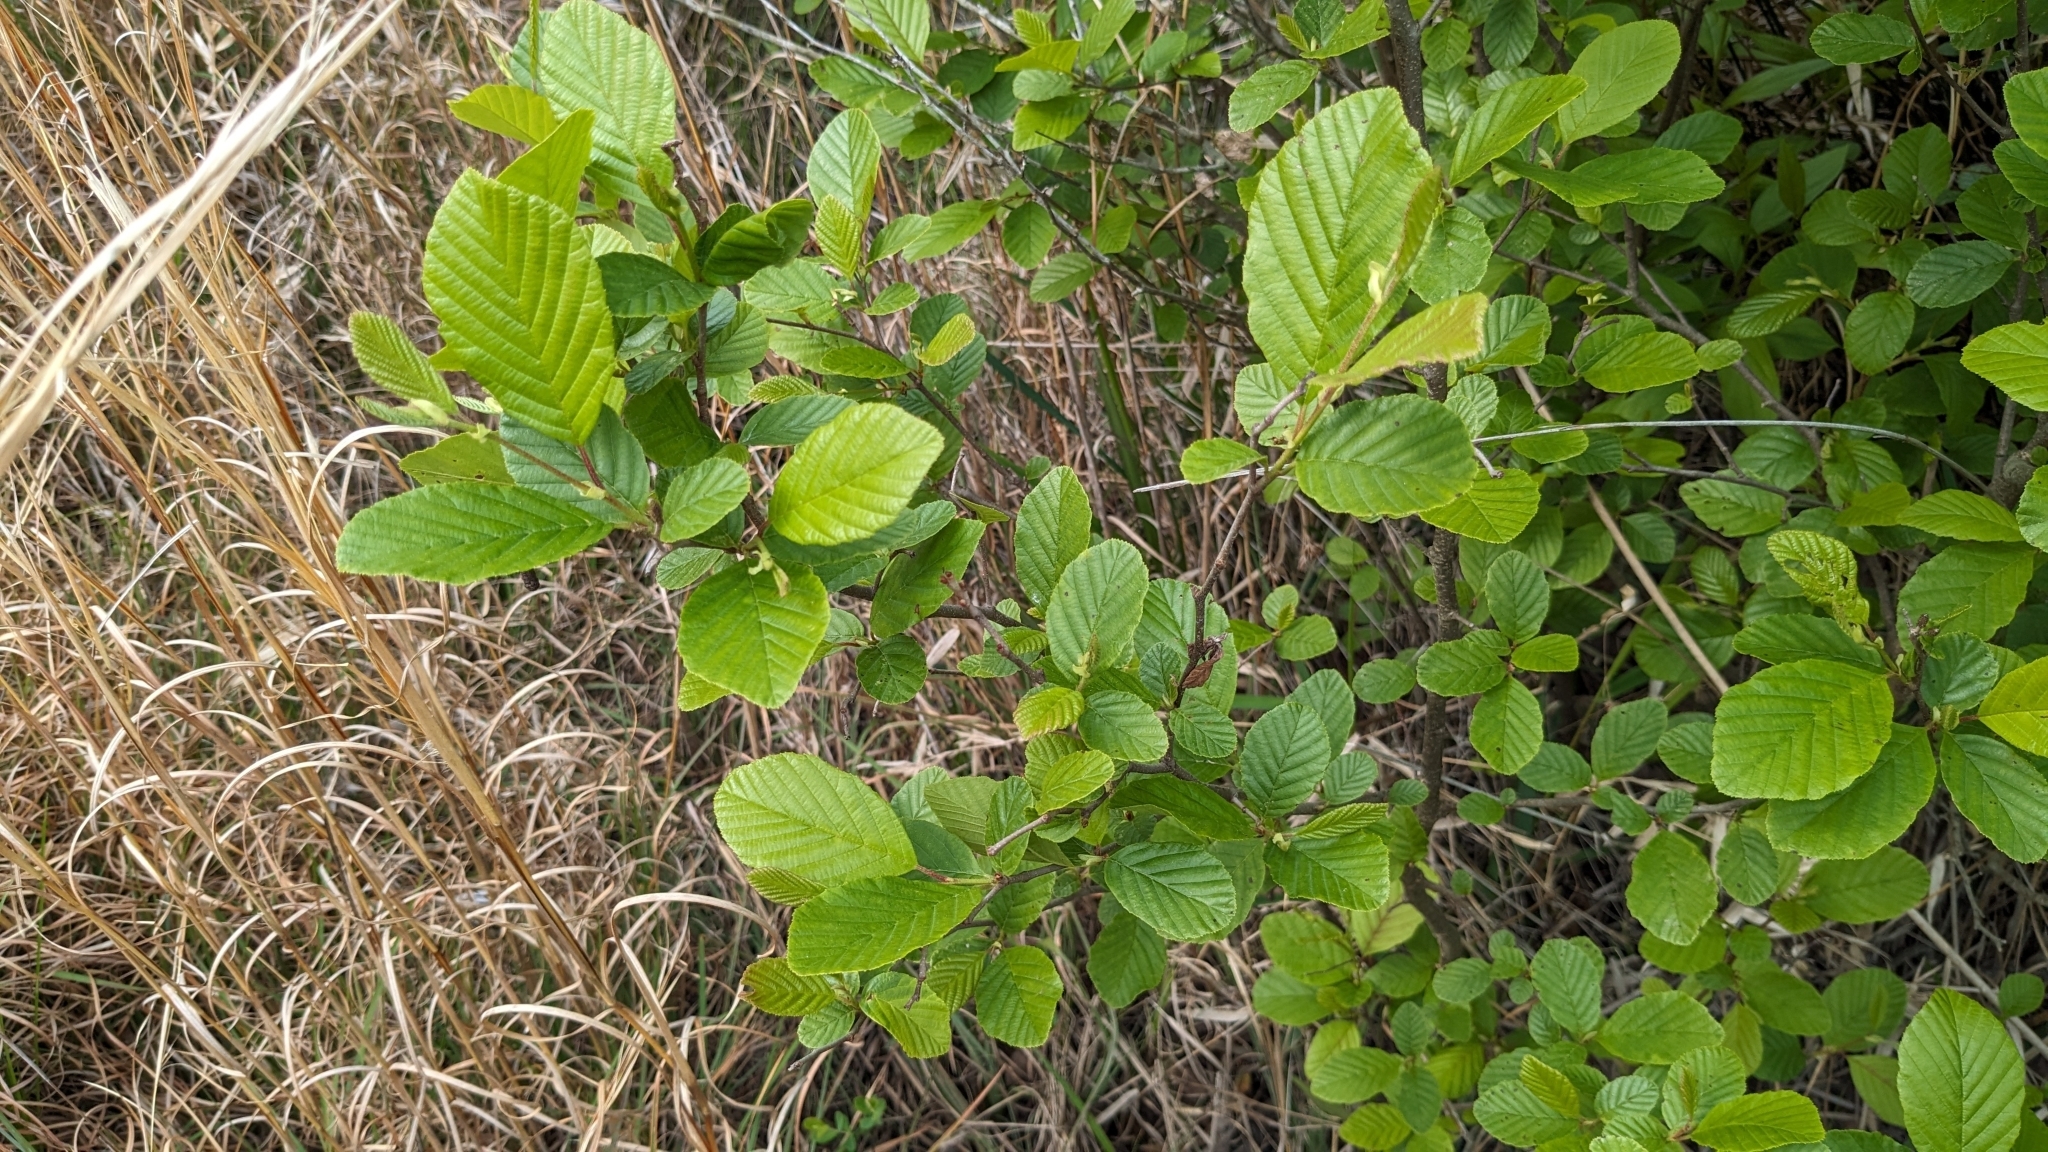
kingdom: Plantae
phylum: Tracheophyta
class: Magnoliopsida
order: Fagales
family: Betulaceae
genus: Alnus
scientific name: Alnus serrulata
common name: Hazel alder
